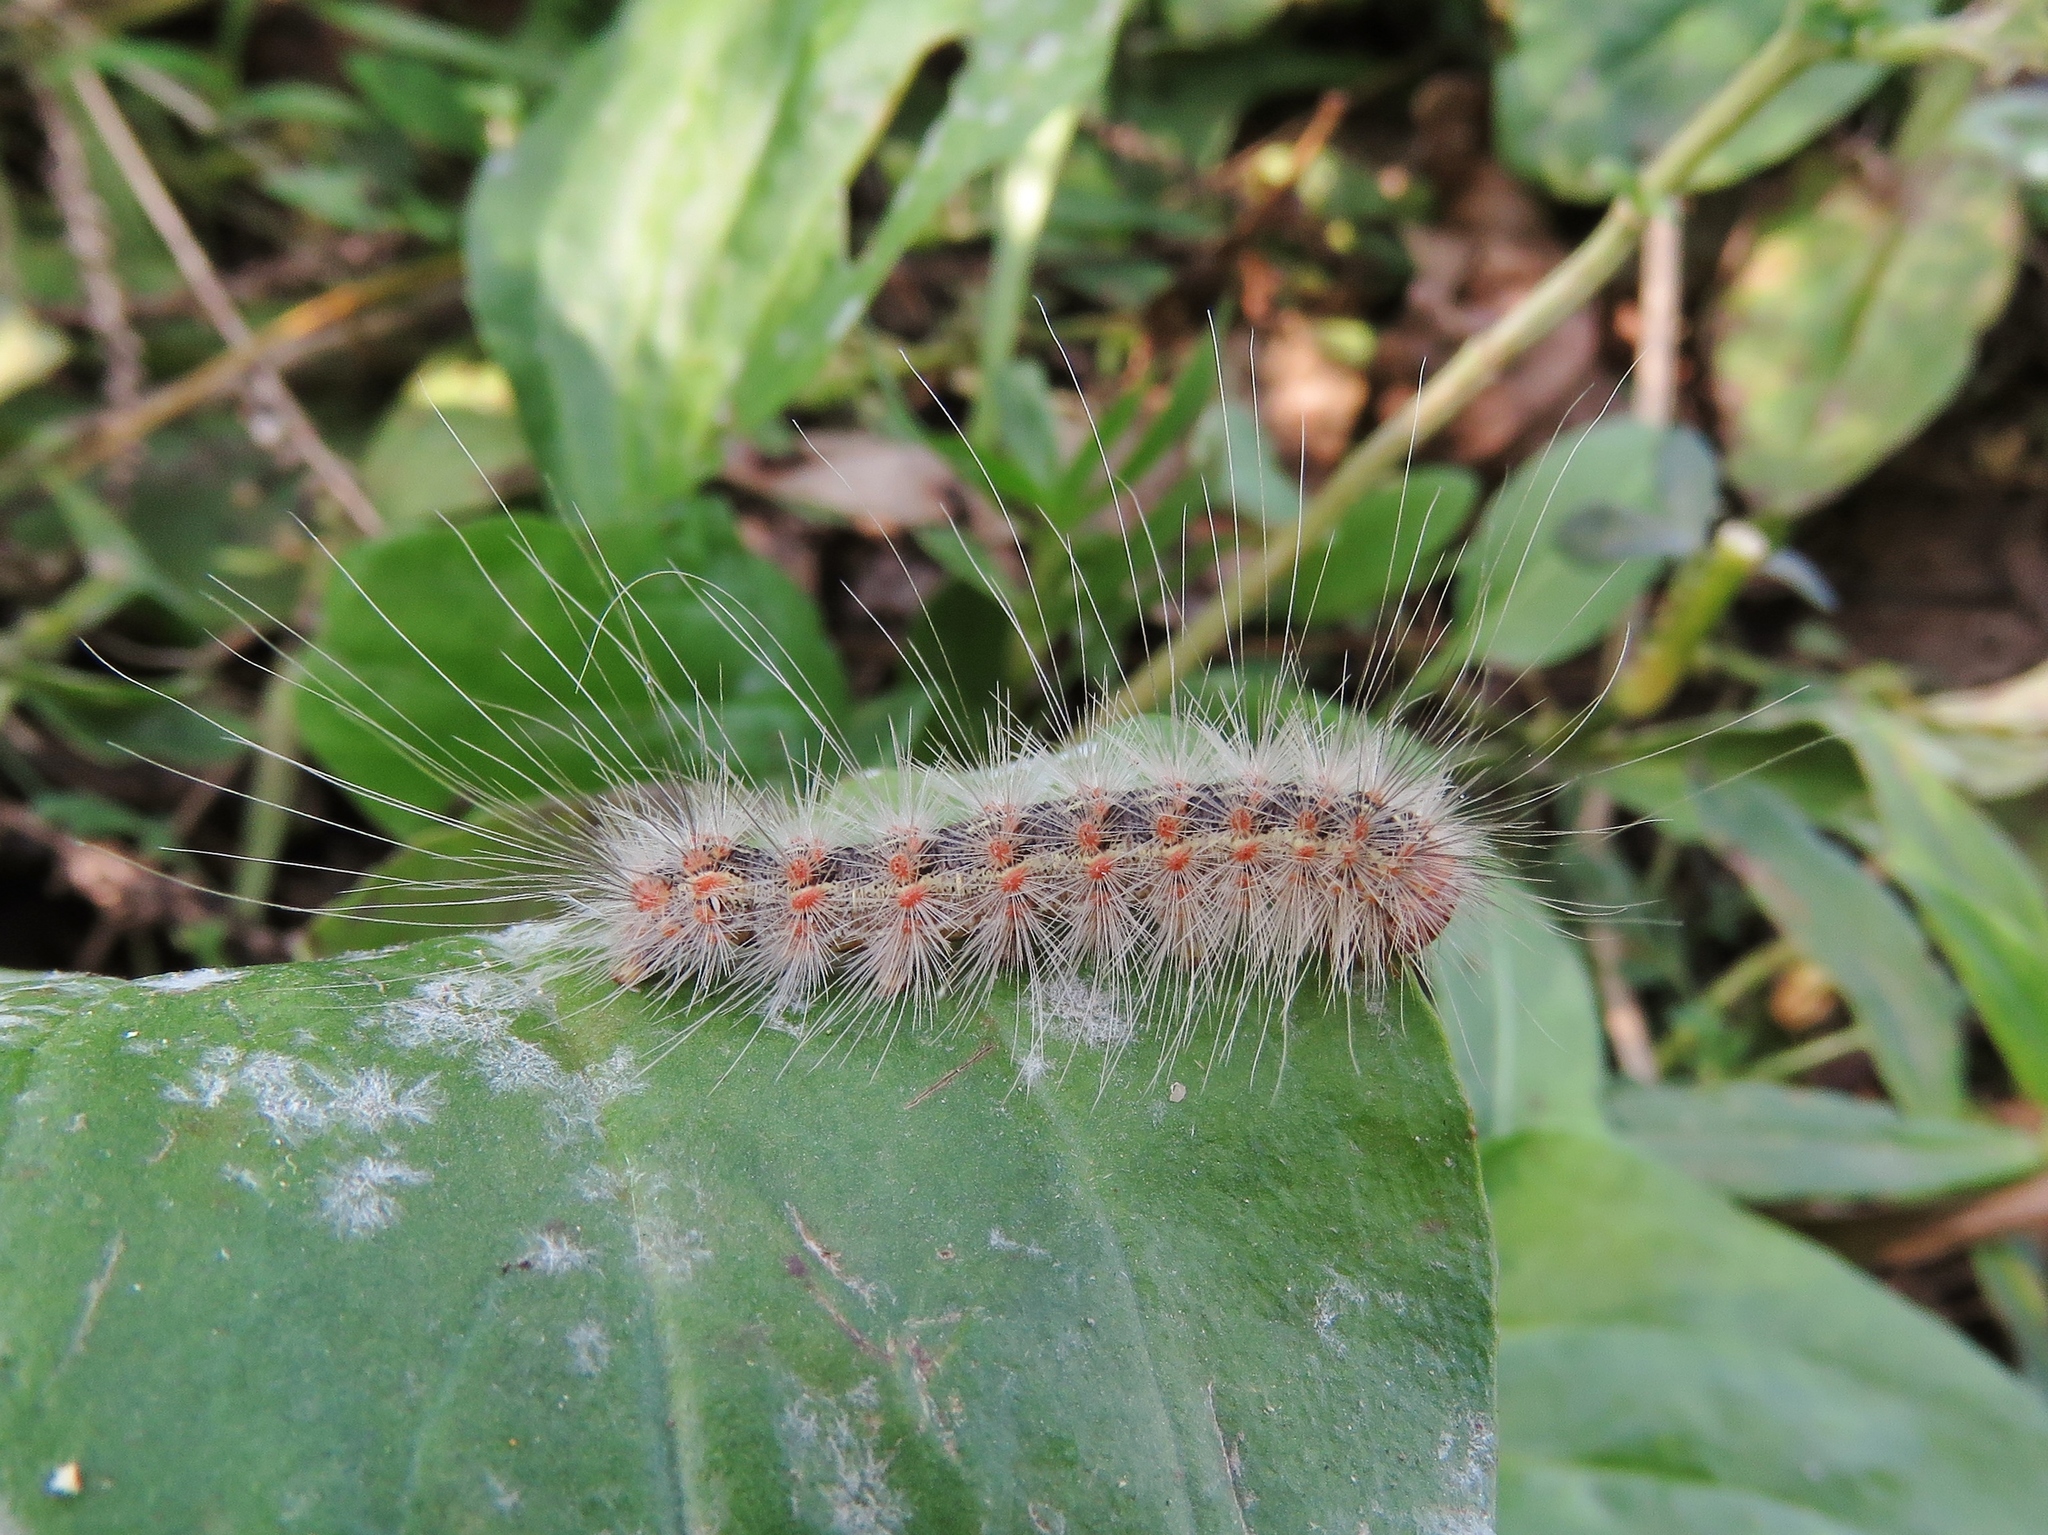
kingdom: Animalia
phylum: Arthropoda
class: Insecta
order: Lepidoptera
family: Erebidae
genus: Hyphantria
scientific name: Hyphantria cunea
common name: American white moth
